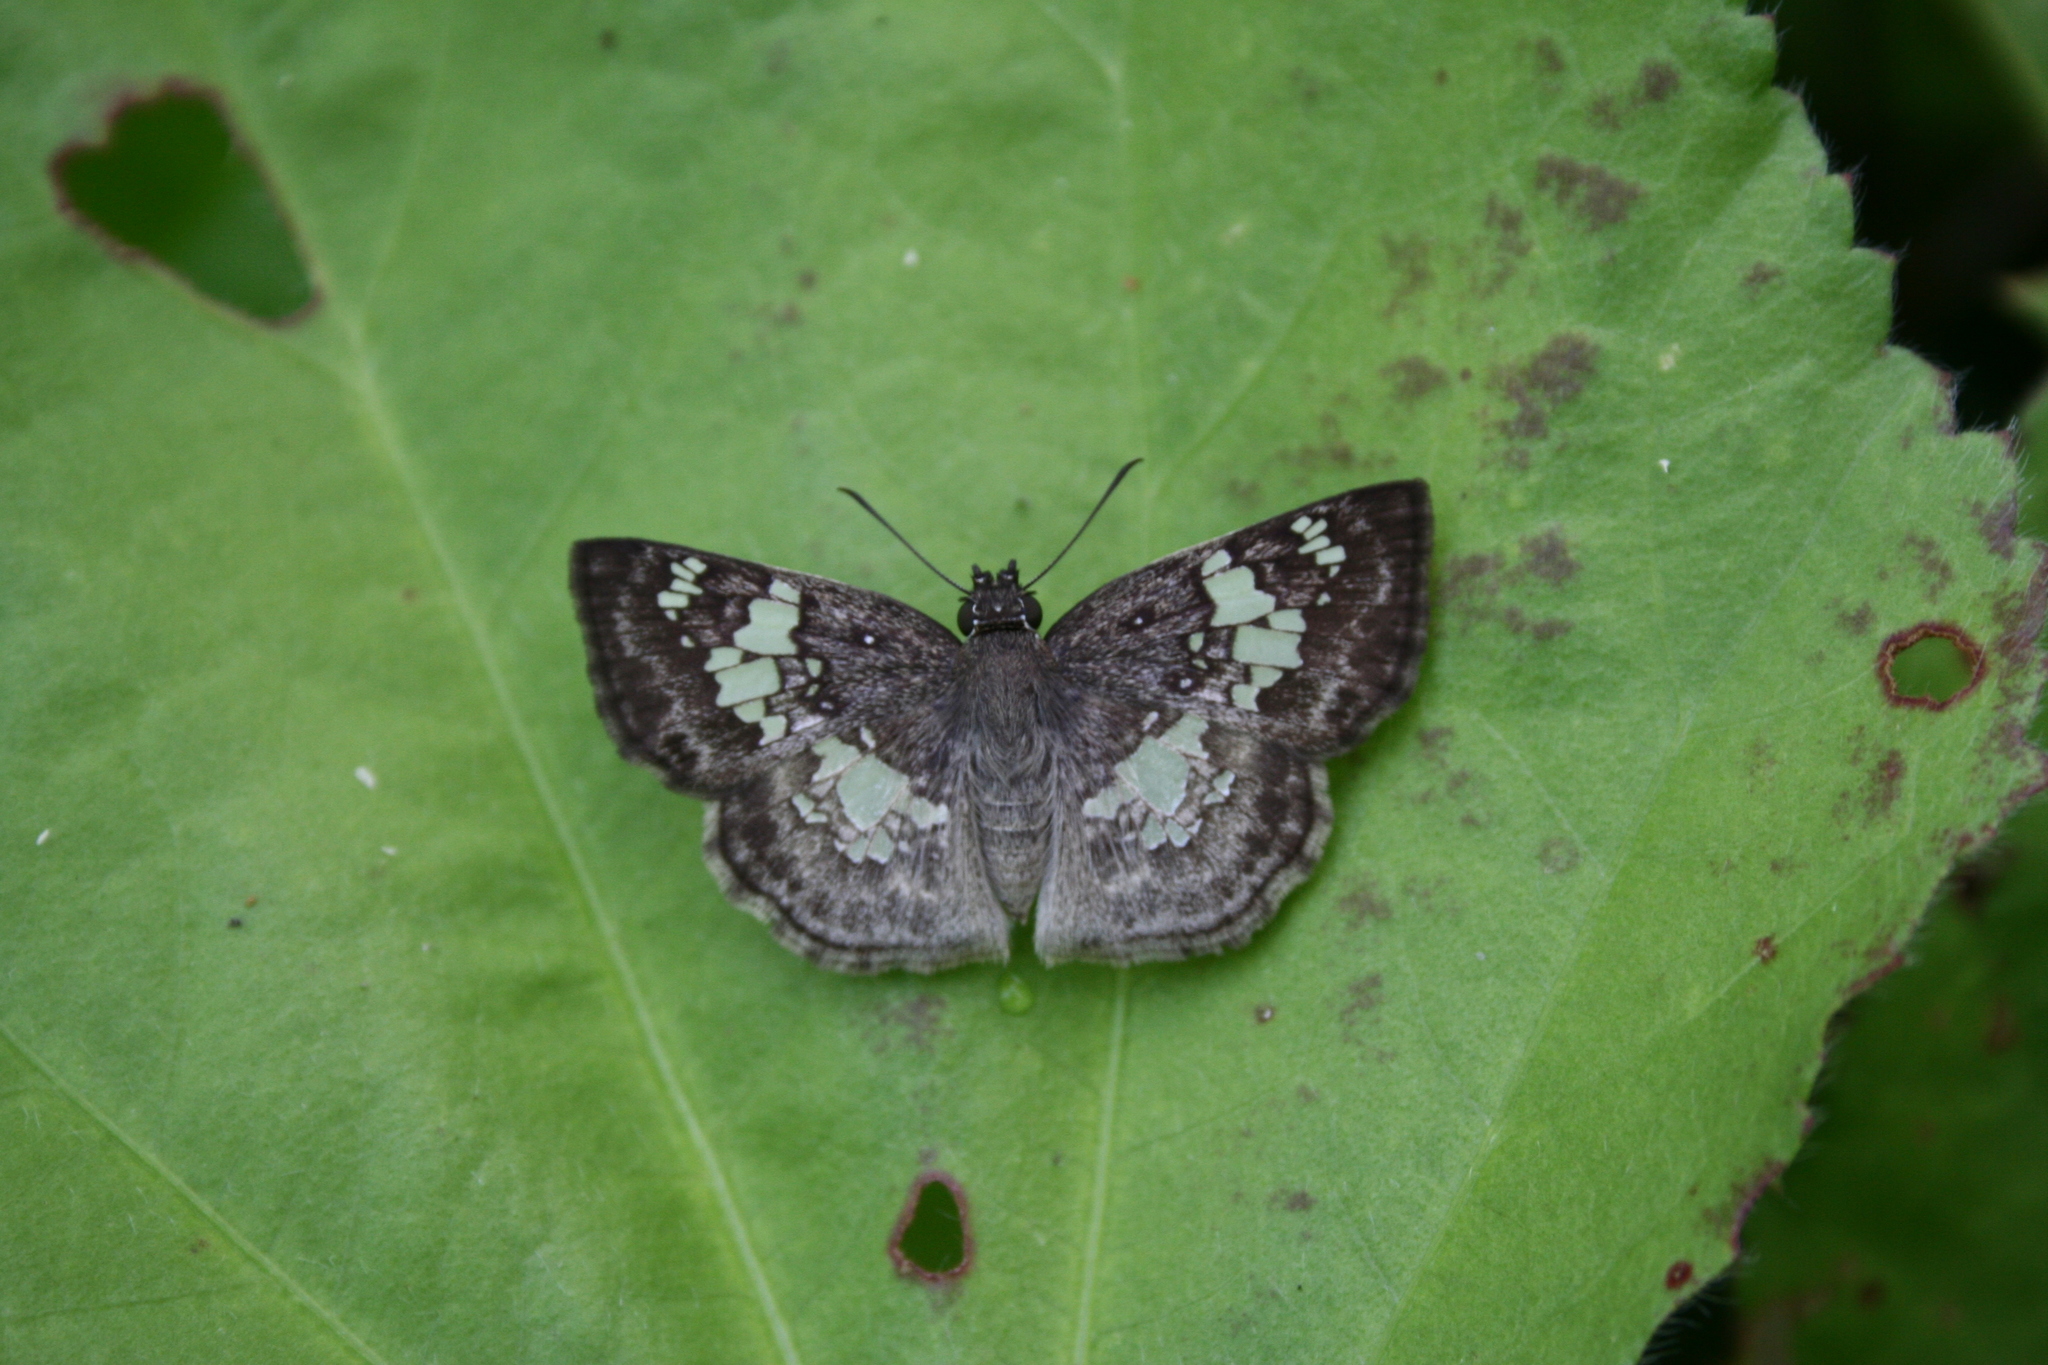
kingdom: Animalia
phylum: Arthropoda
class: Insecta
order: Lepidoptera
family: Hesperiidae
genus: Xenophanes
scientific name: Xenophanes tryxus
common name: Glassy-winged skipper
